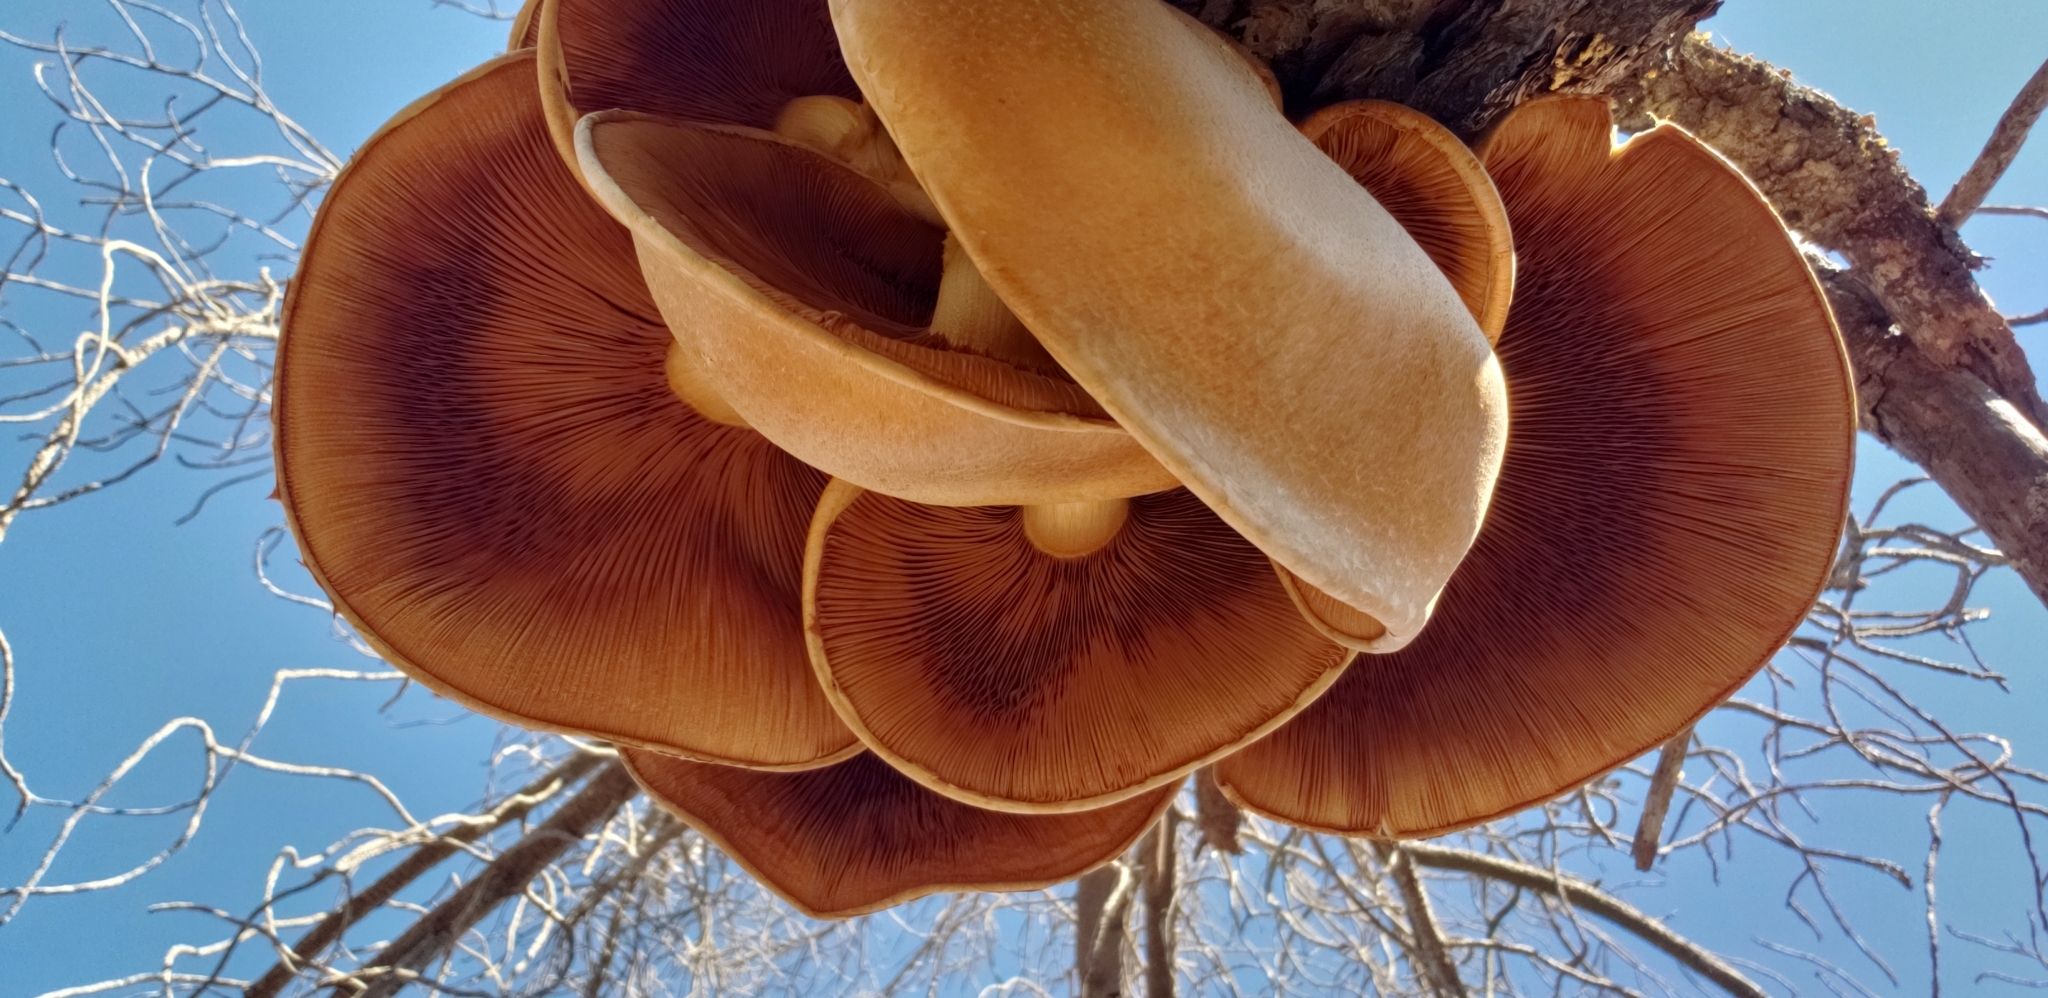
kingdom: Fungi
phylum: Basidiomycota
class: Agaricomycetes
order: Agaricales
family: Hymenogastraceae
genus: Gymnopilus
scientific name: Gymnopilus ventricosus
